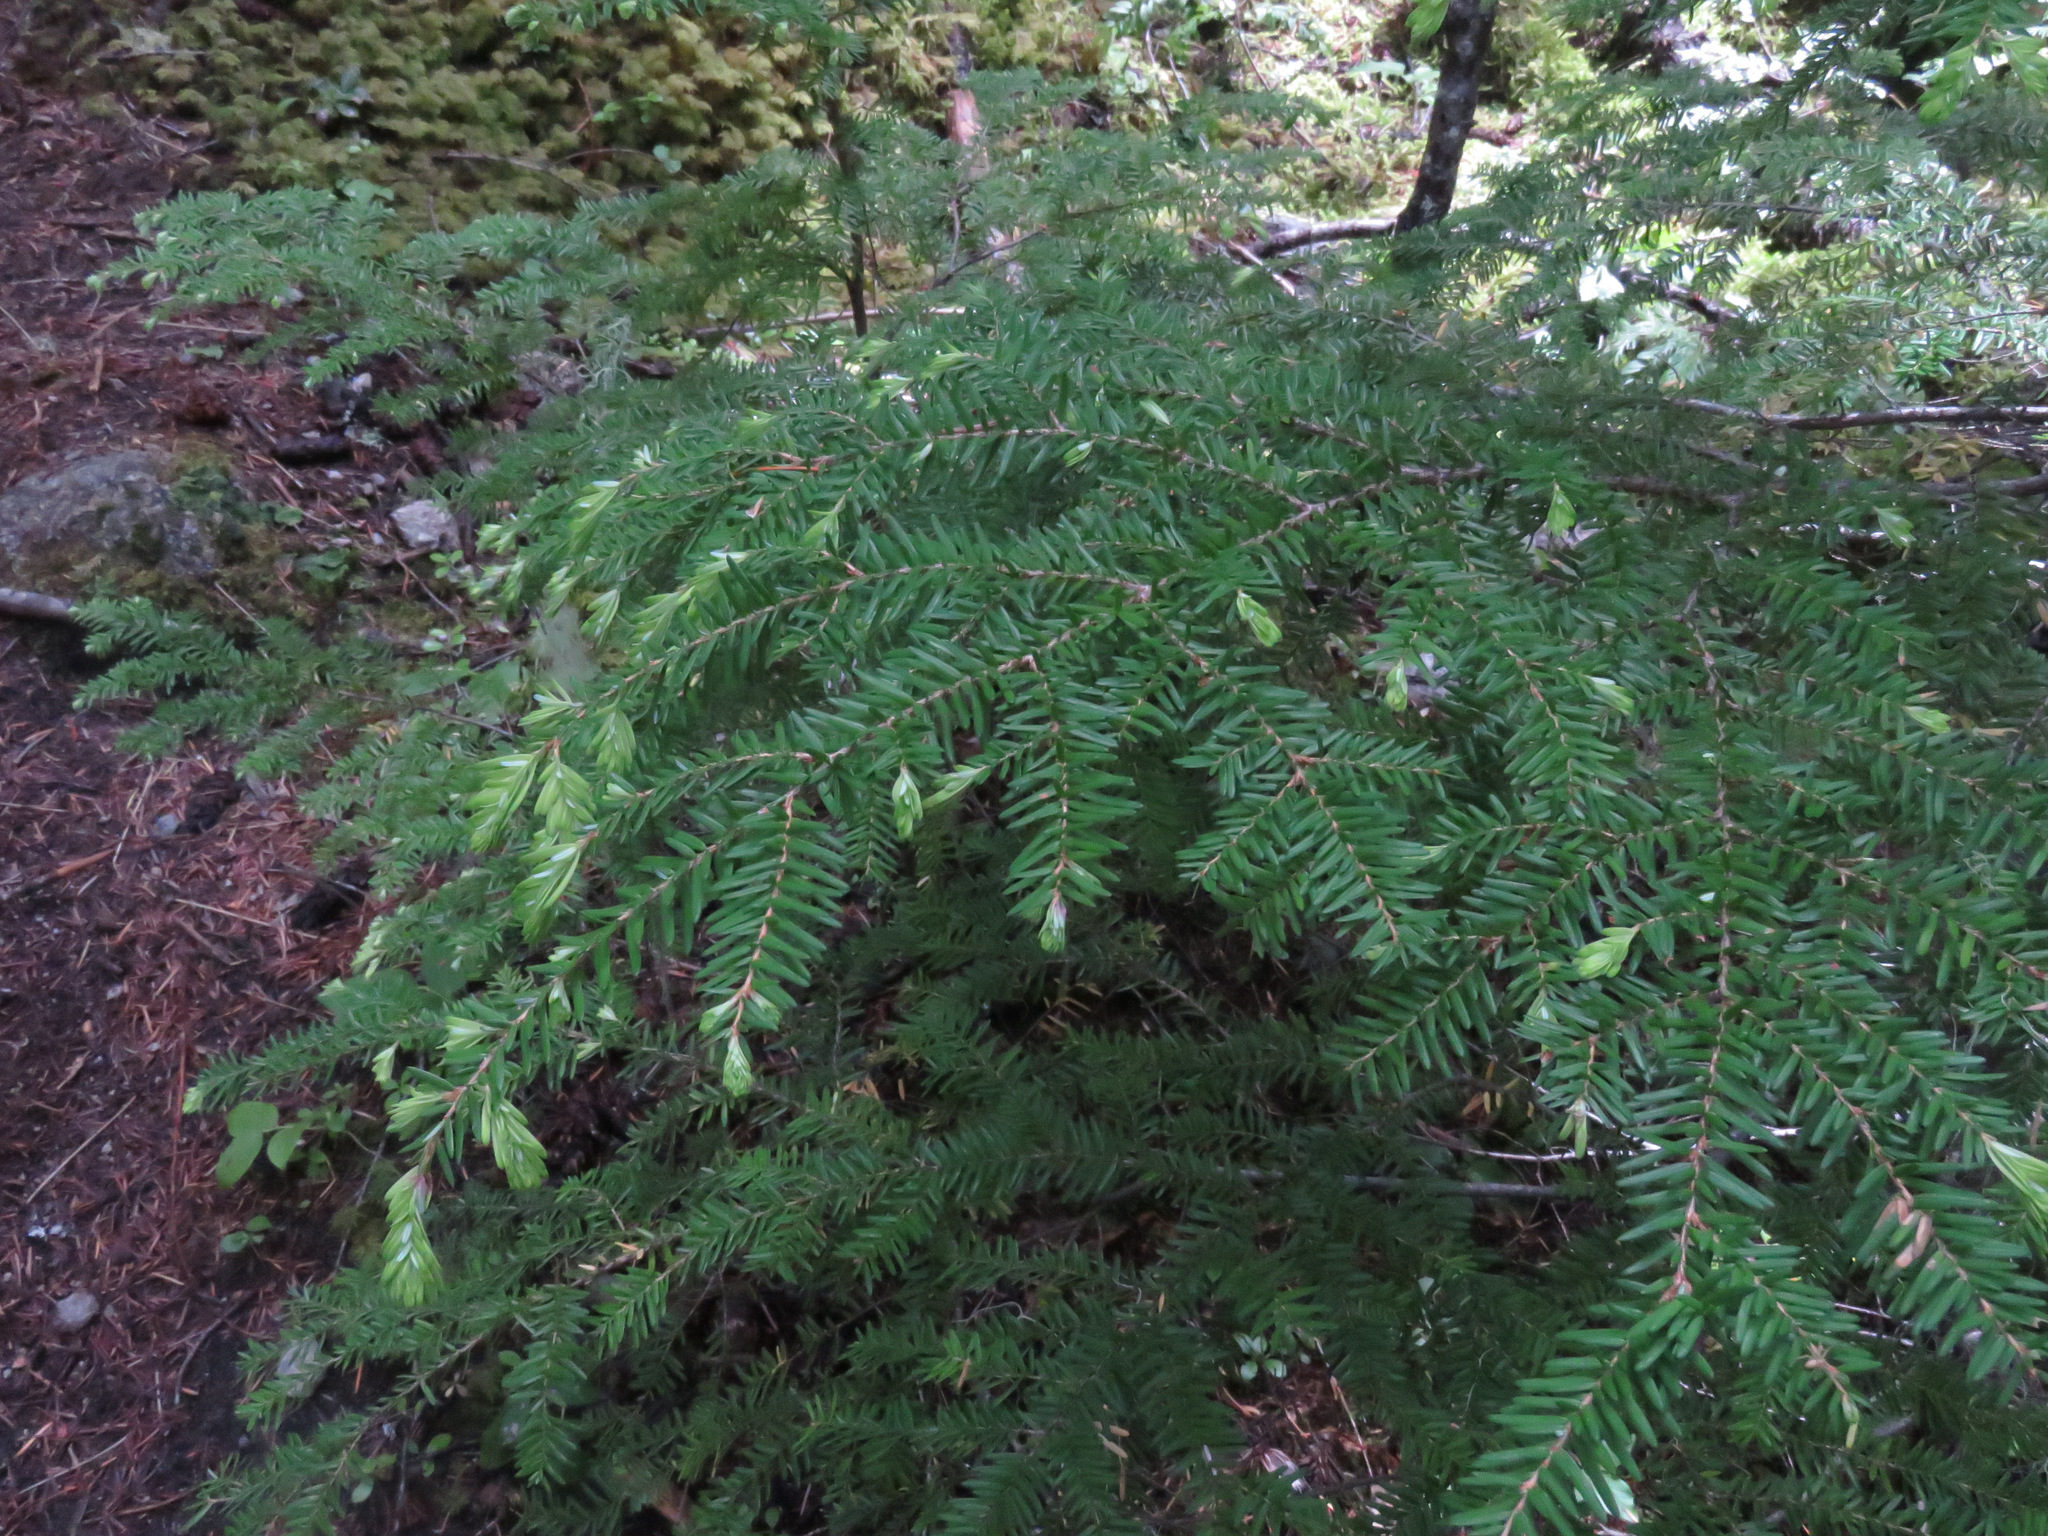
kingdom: Plantae
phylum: Tracheophyta
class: Pinopsida
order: Pinales
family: Pinaceae
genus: Tsuga
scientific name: Tsuga heterophylla
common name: Western hemlock
